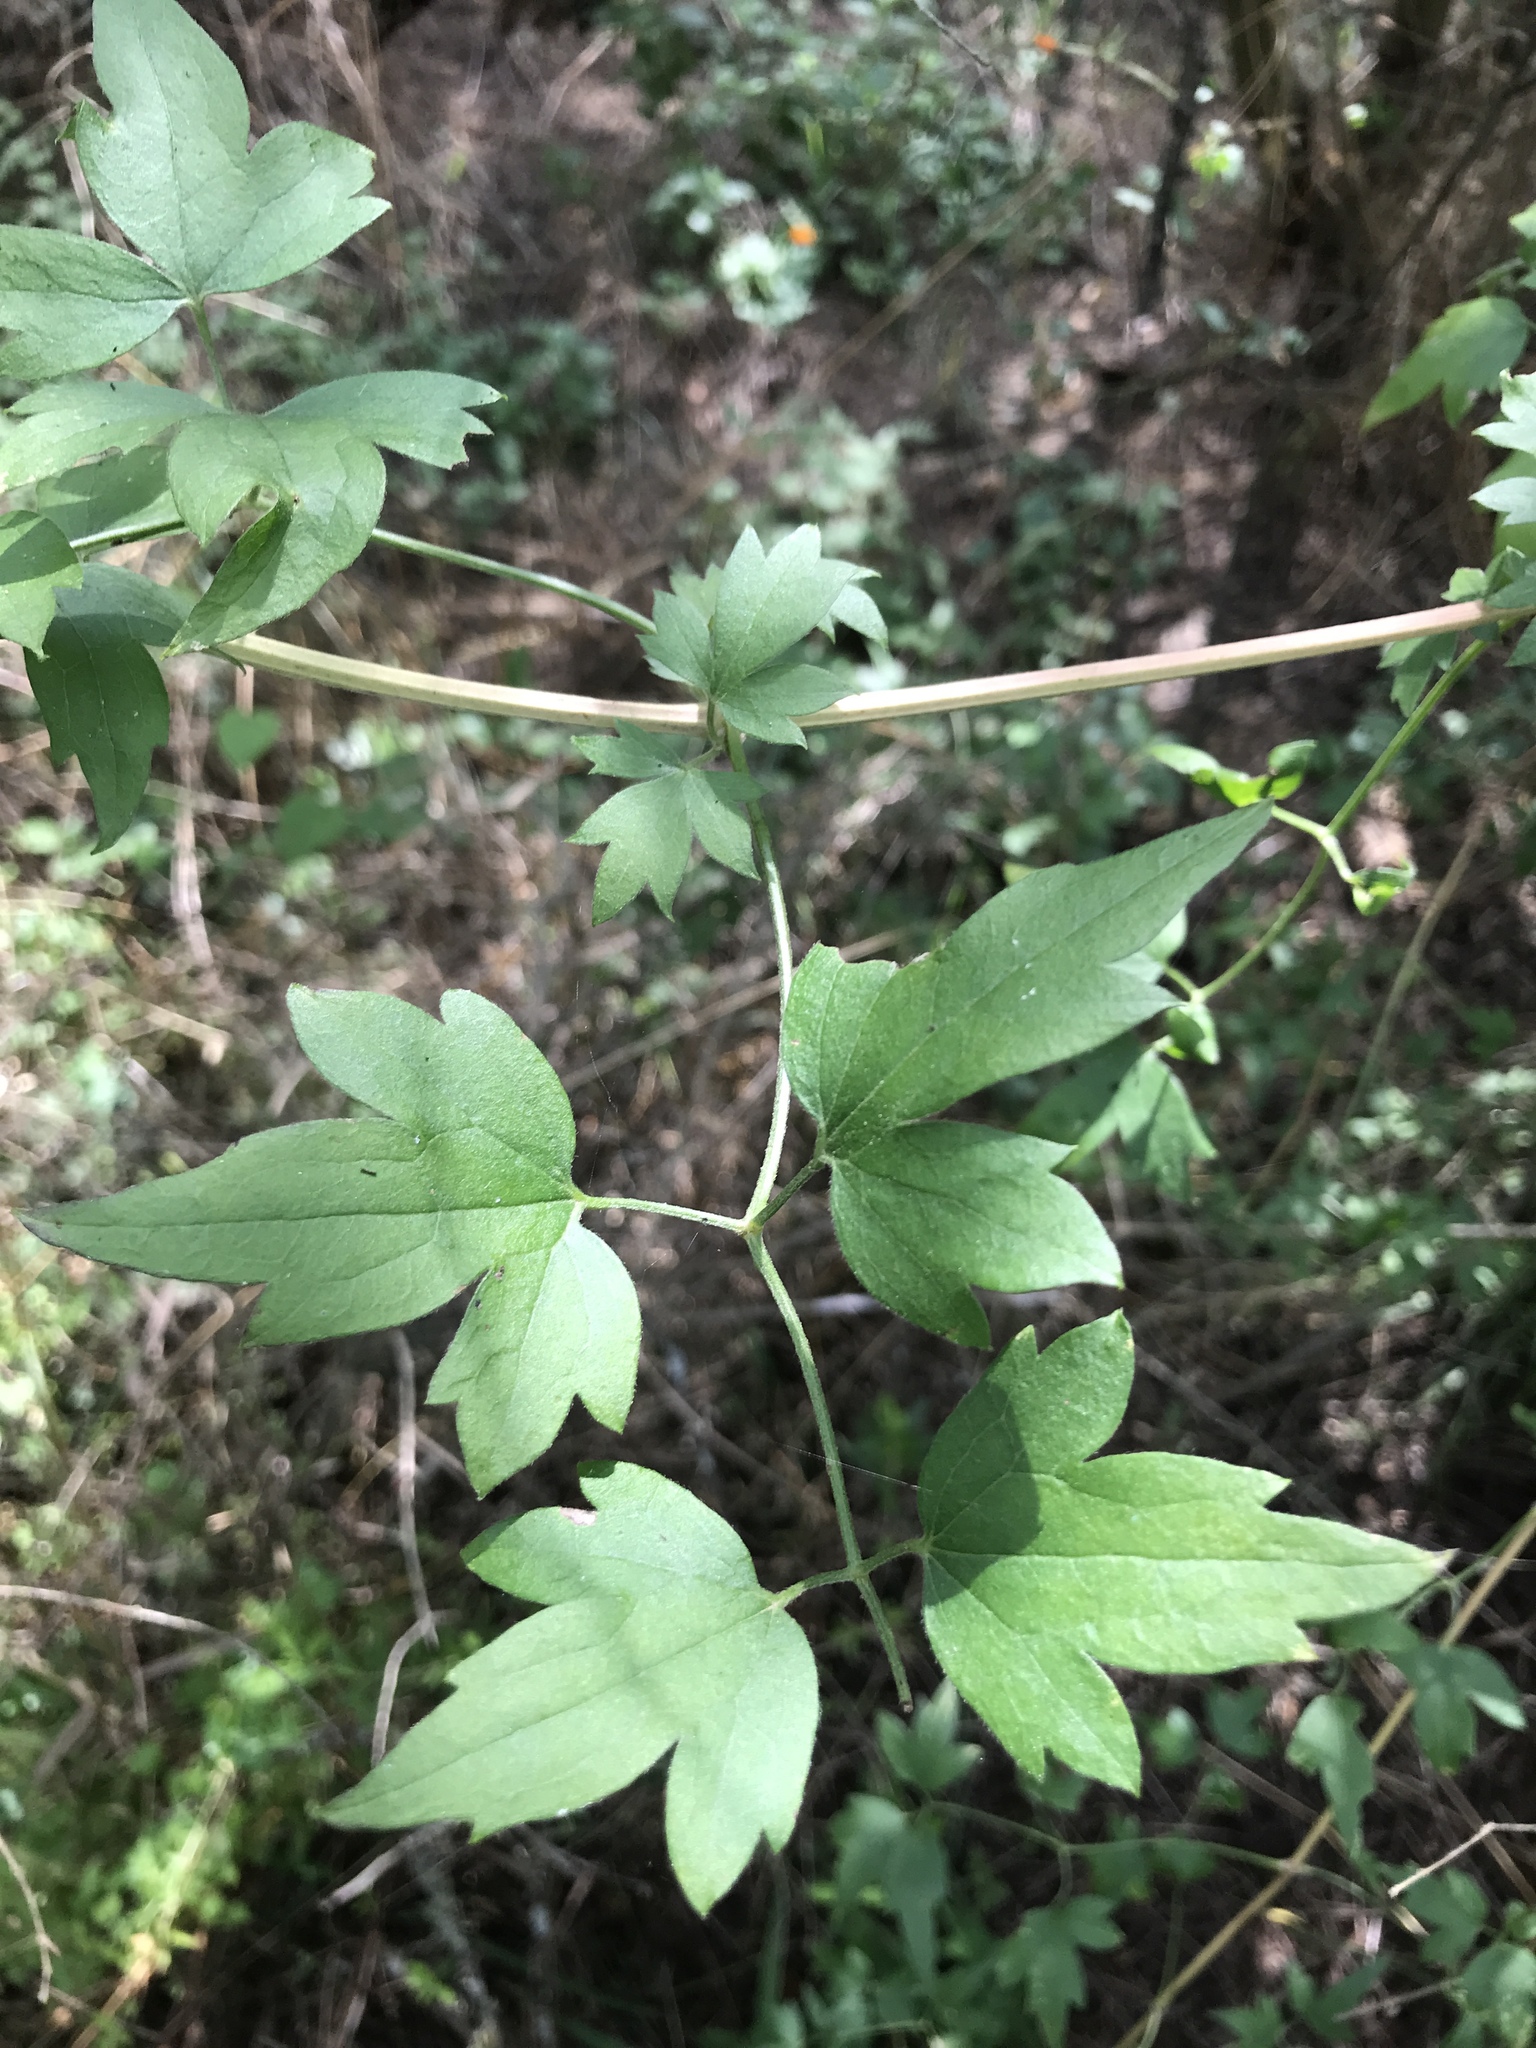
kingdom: Plantae
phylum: Tracheophyta
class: Magnoliopsida
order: Ranunculales
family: Ranunculaceae
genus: Clematis
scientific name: Clematis drummondii
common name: Texas virgin's bower
